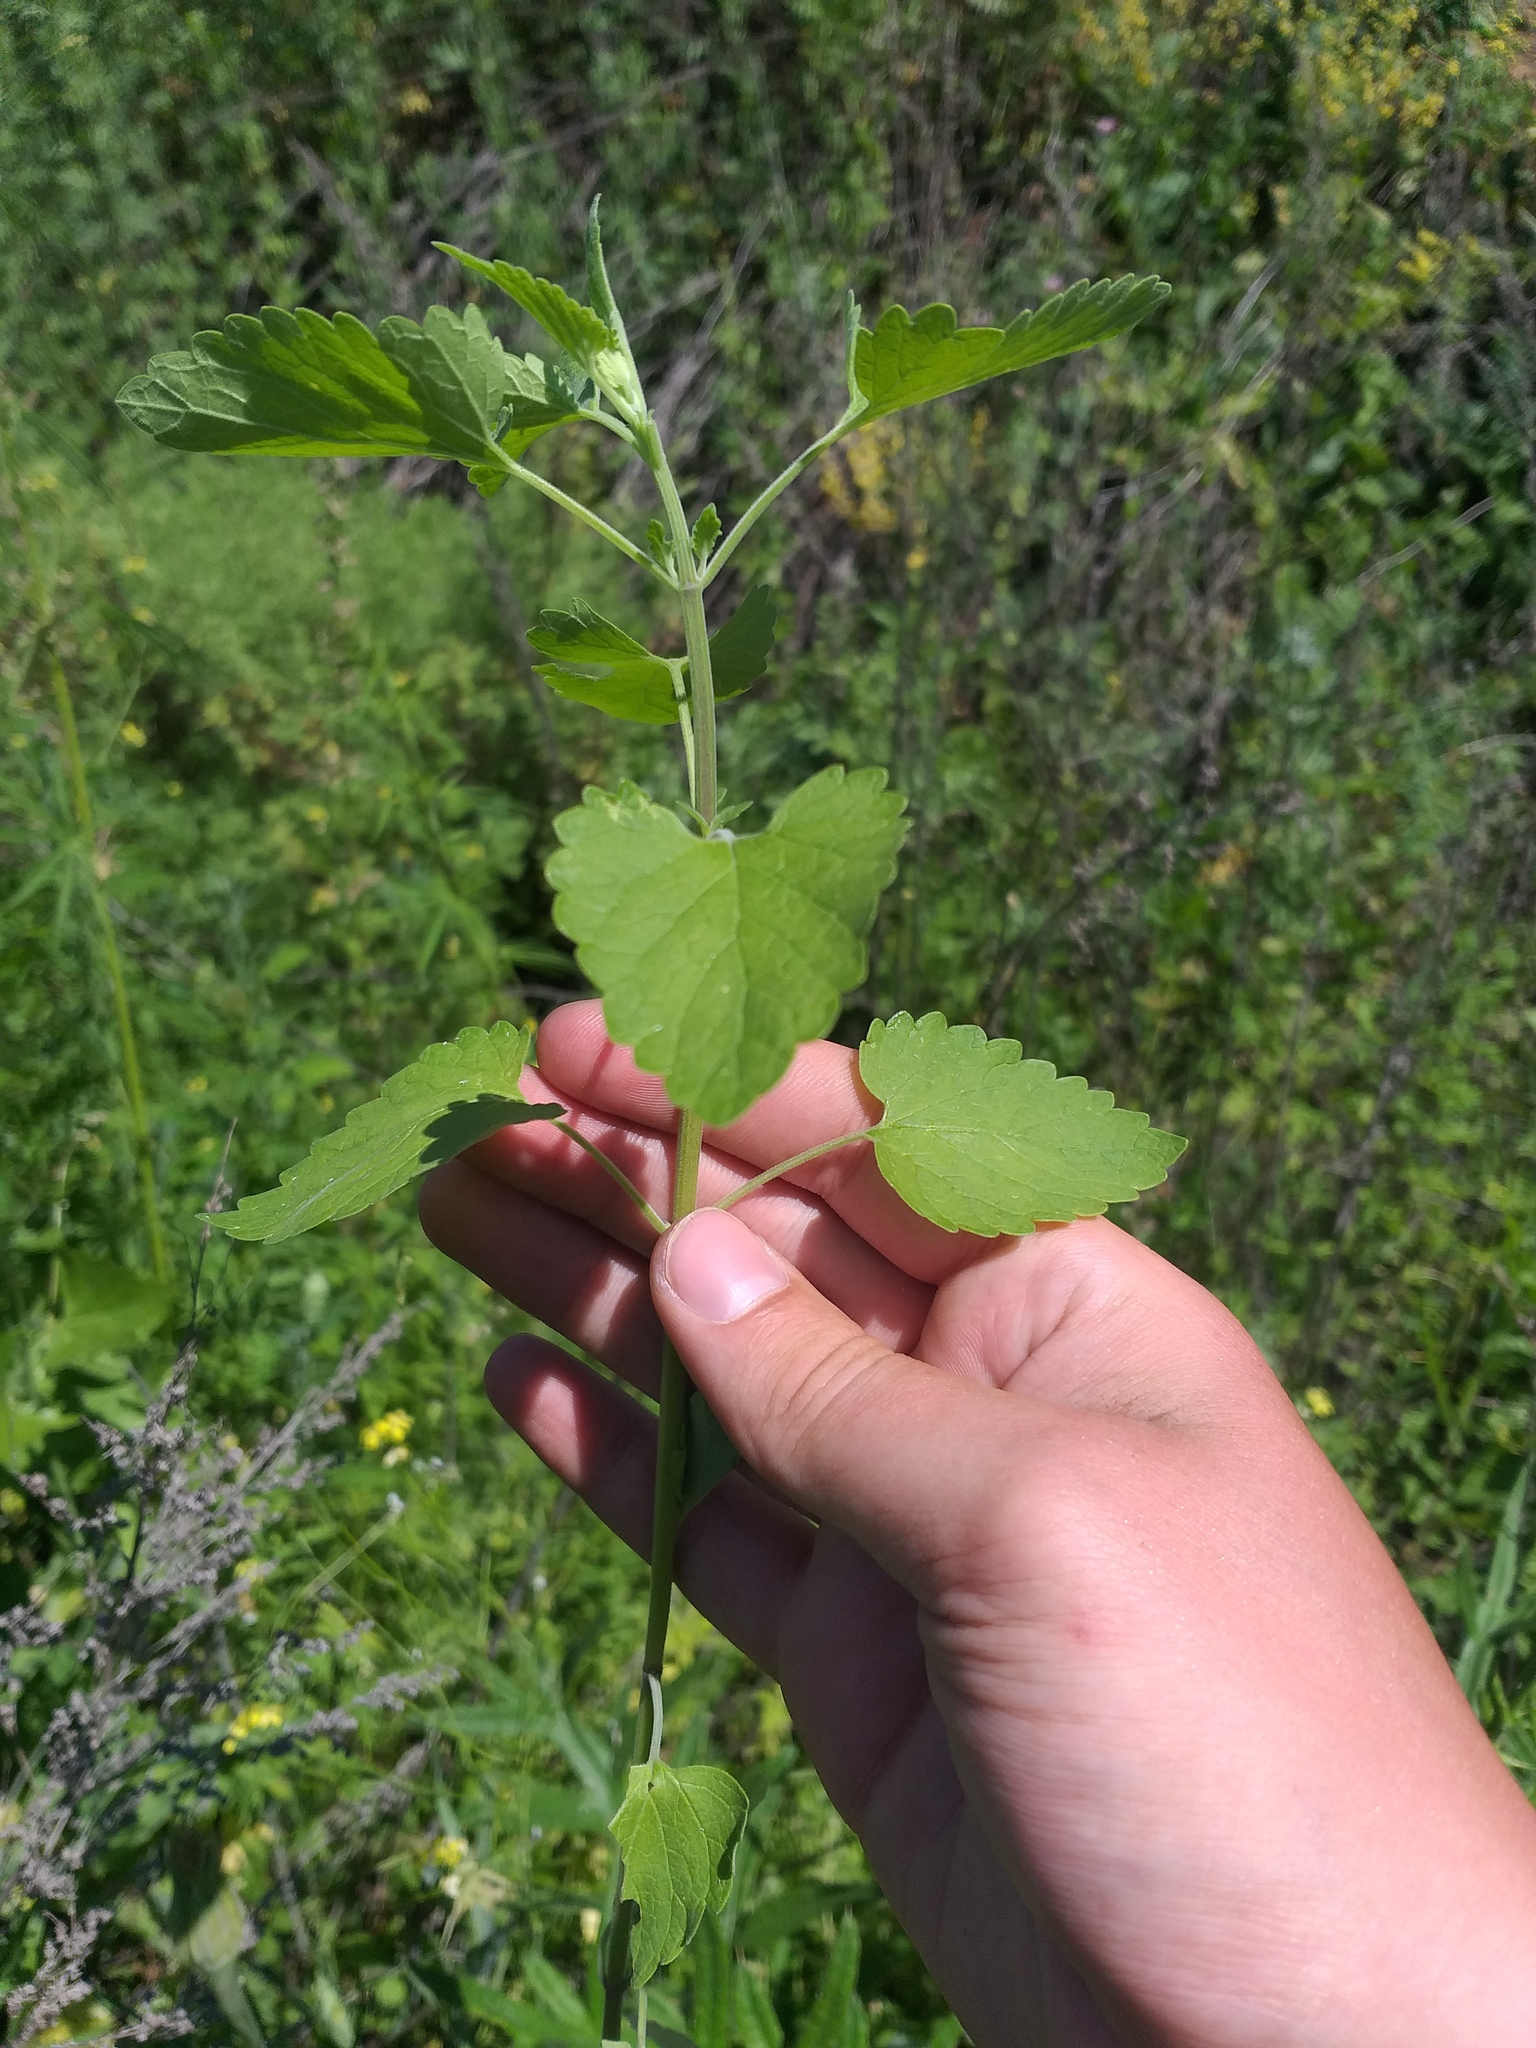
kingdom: Plantae
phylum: Tracheophyta
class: Magnoliopsida
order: Lamiales
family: Lamiaceae
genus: Nepeta
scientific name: Nepeta cataria
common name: Catnip
